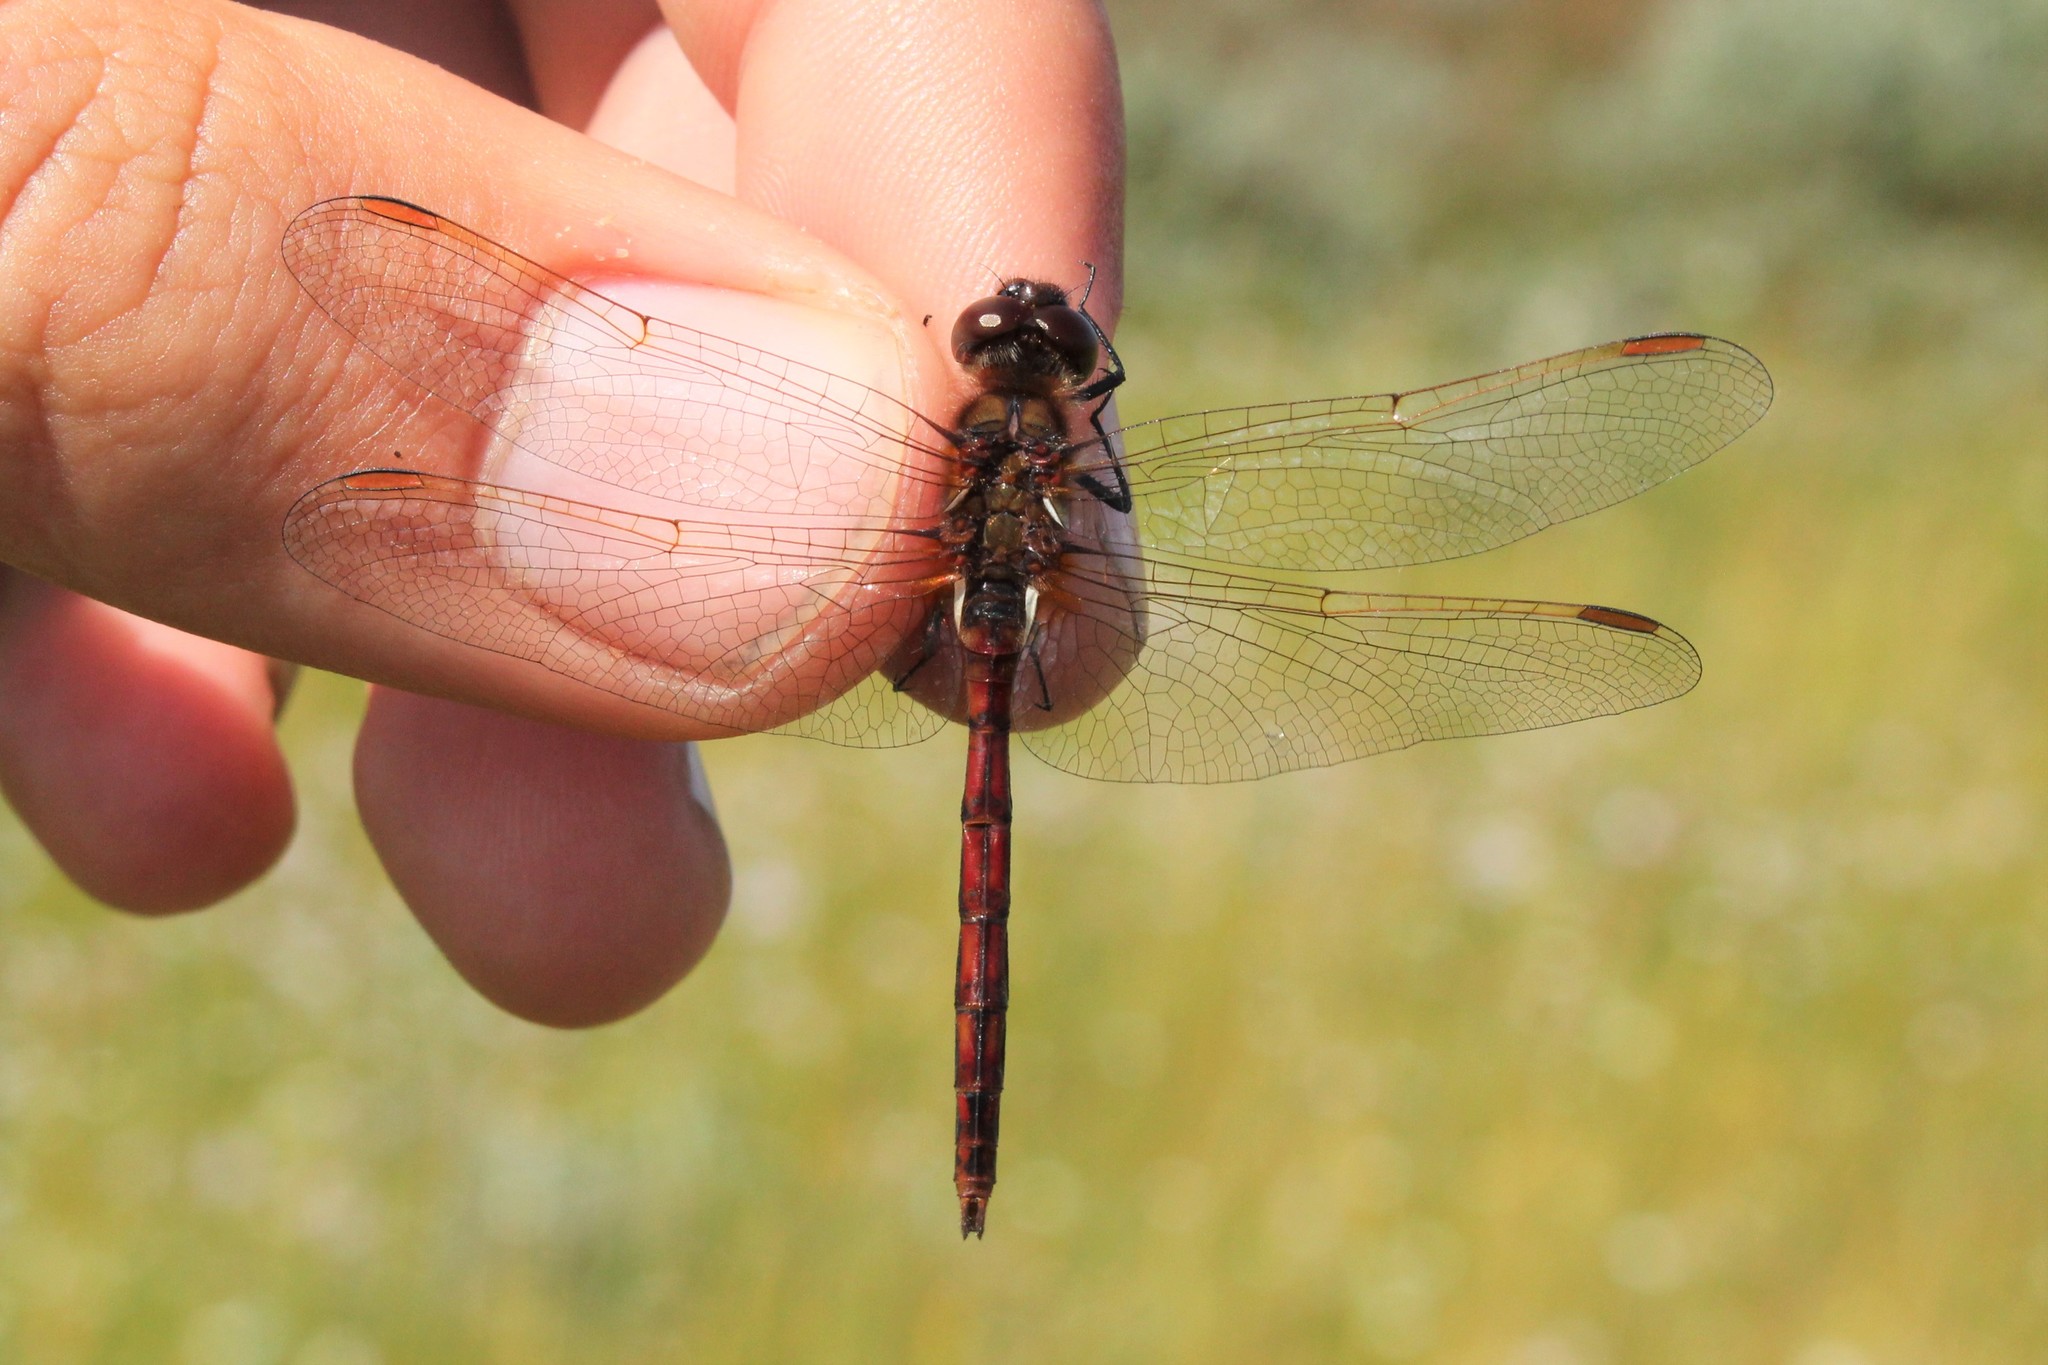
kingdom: Animalia
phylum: Arthropoda
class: Insecta
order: Odonata
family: Libellulidae
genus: Sympetrum
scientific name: Sympetrum costiferum
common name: Saffron-winged meadowhawk
